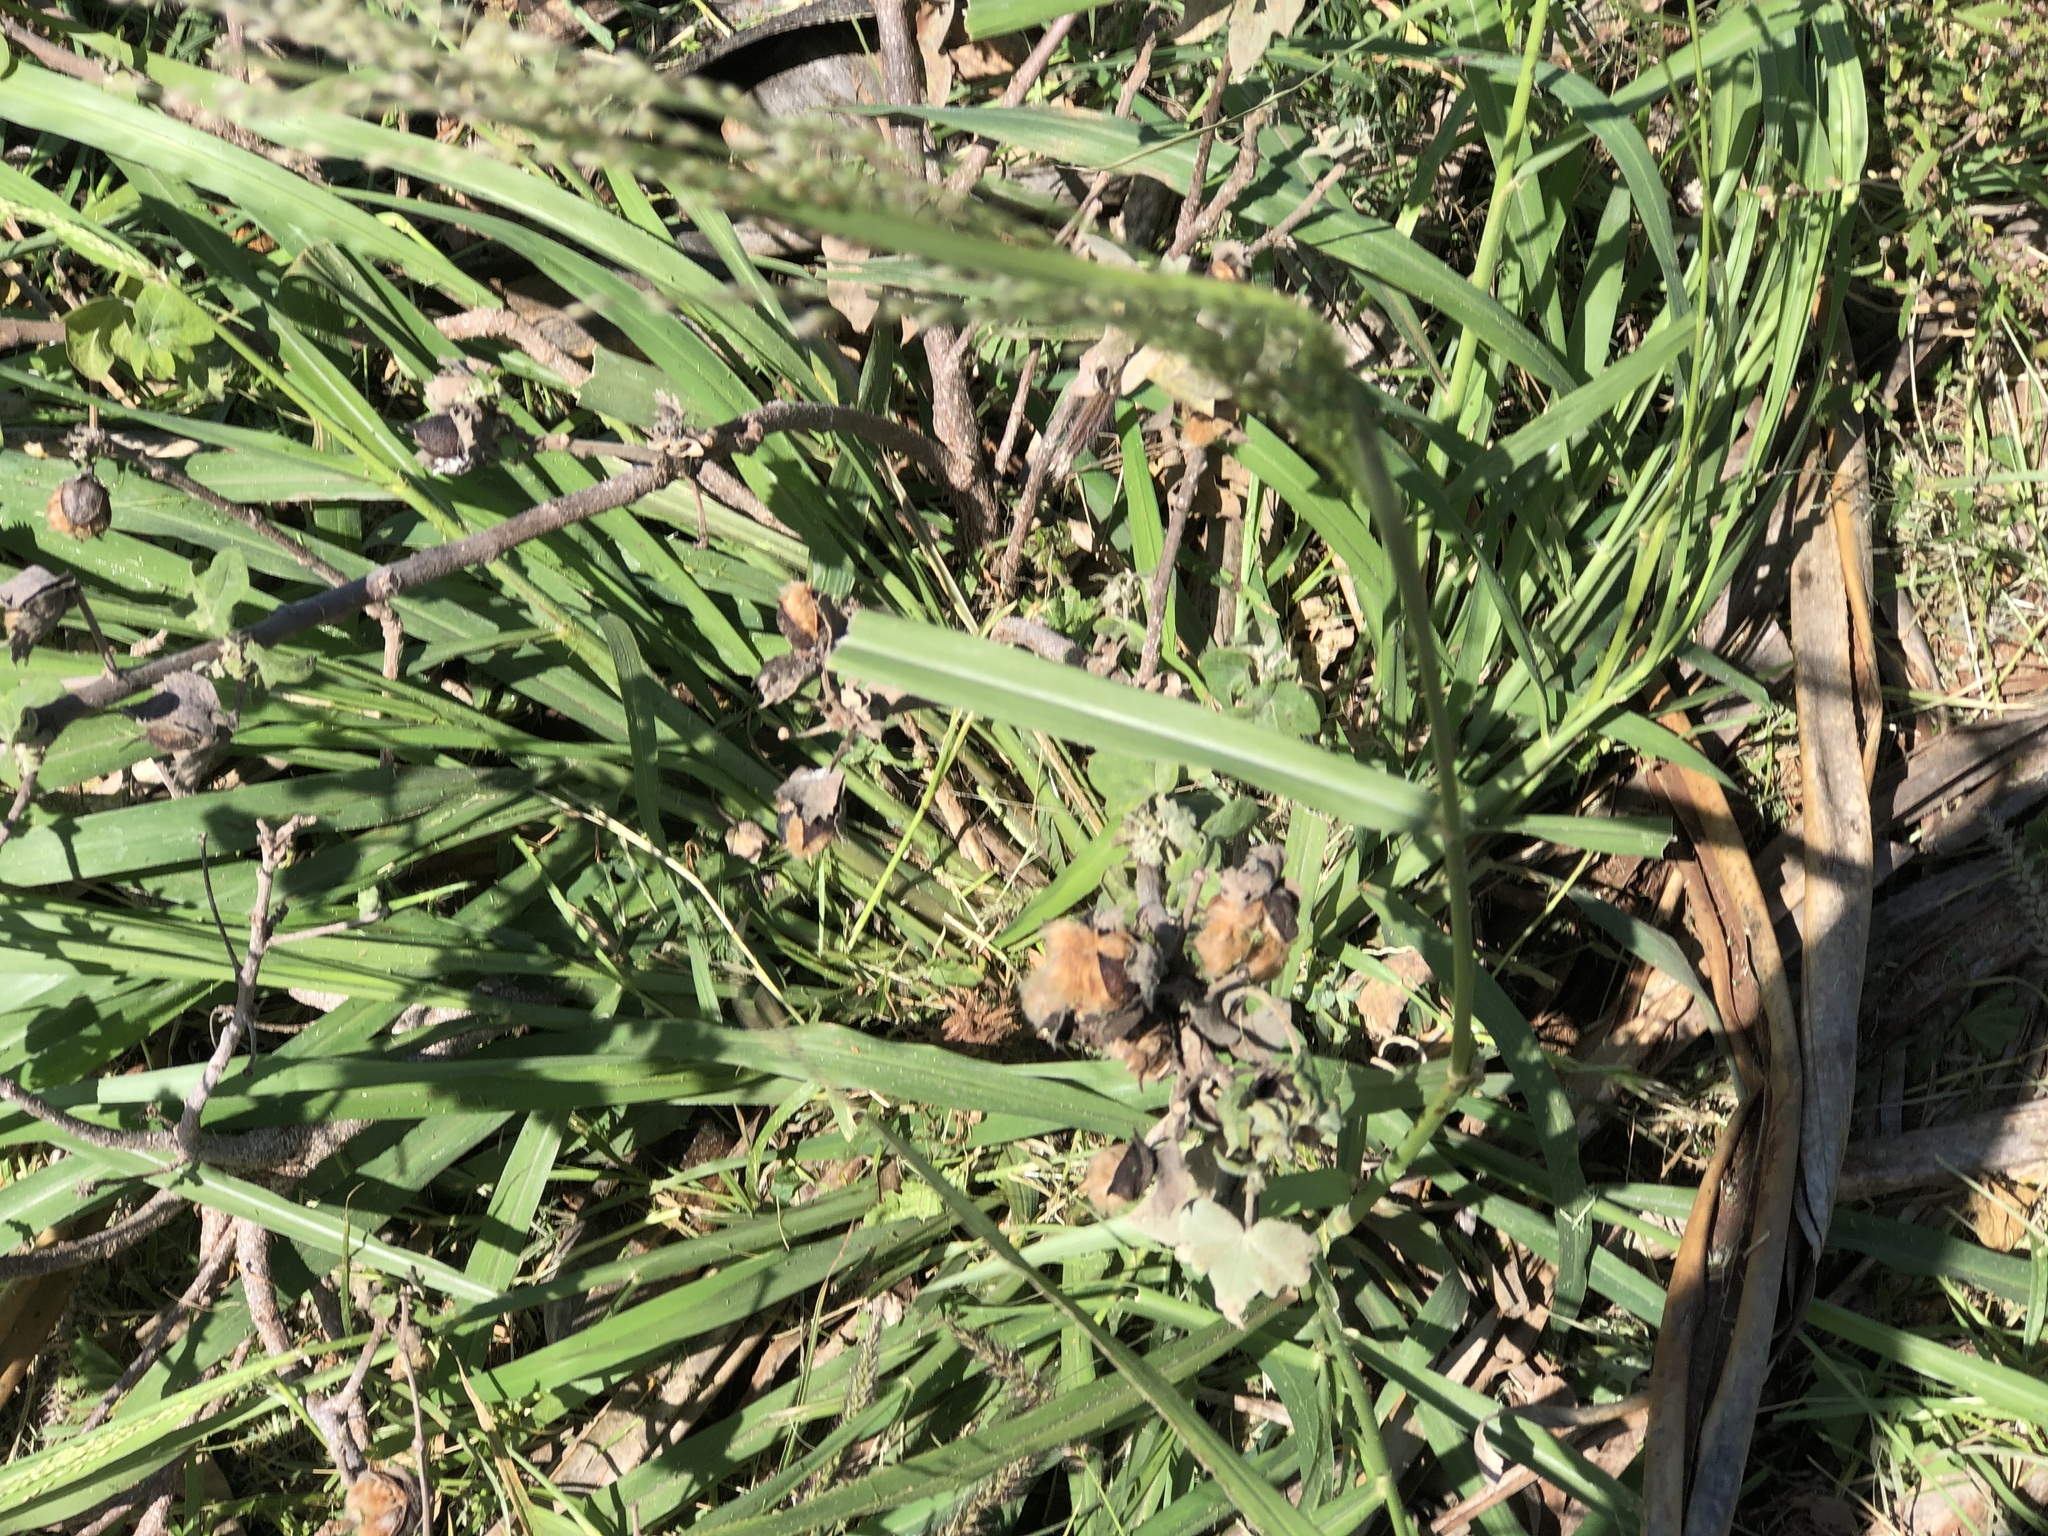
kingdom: Plantae
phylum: Tracheophyta
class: Liliopsida
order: Poales
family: Poaceae
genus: Megathyrsus
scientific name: Megathyrsus maximus
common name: Guineagrass
